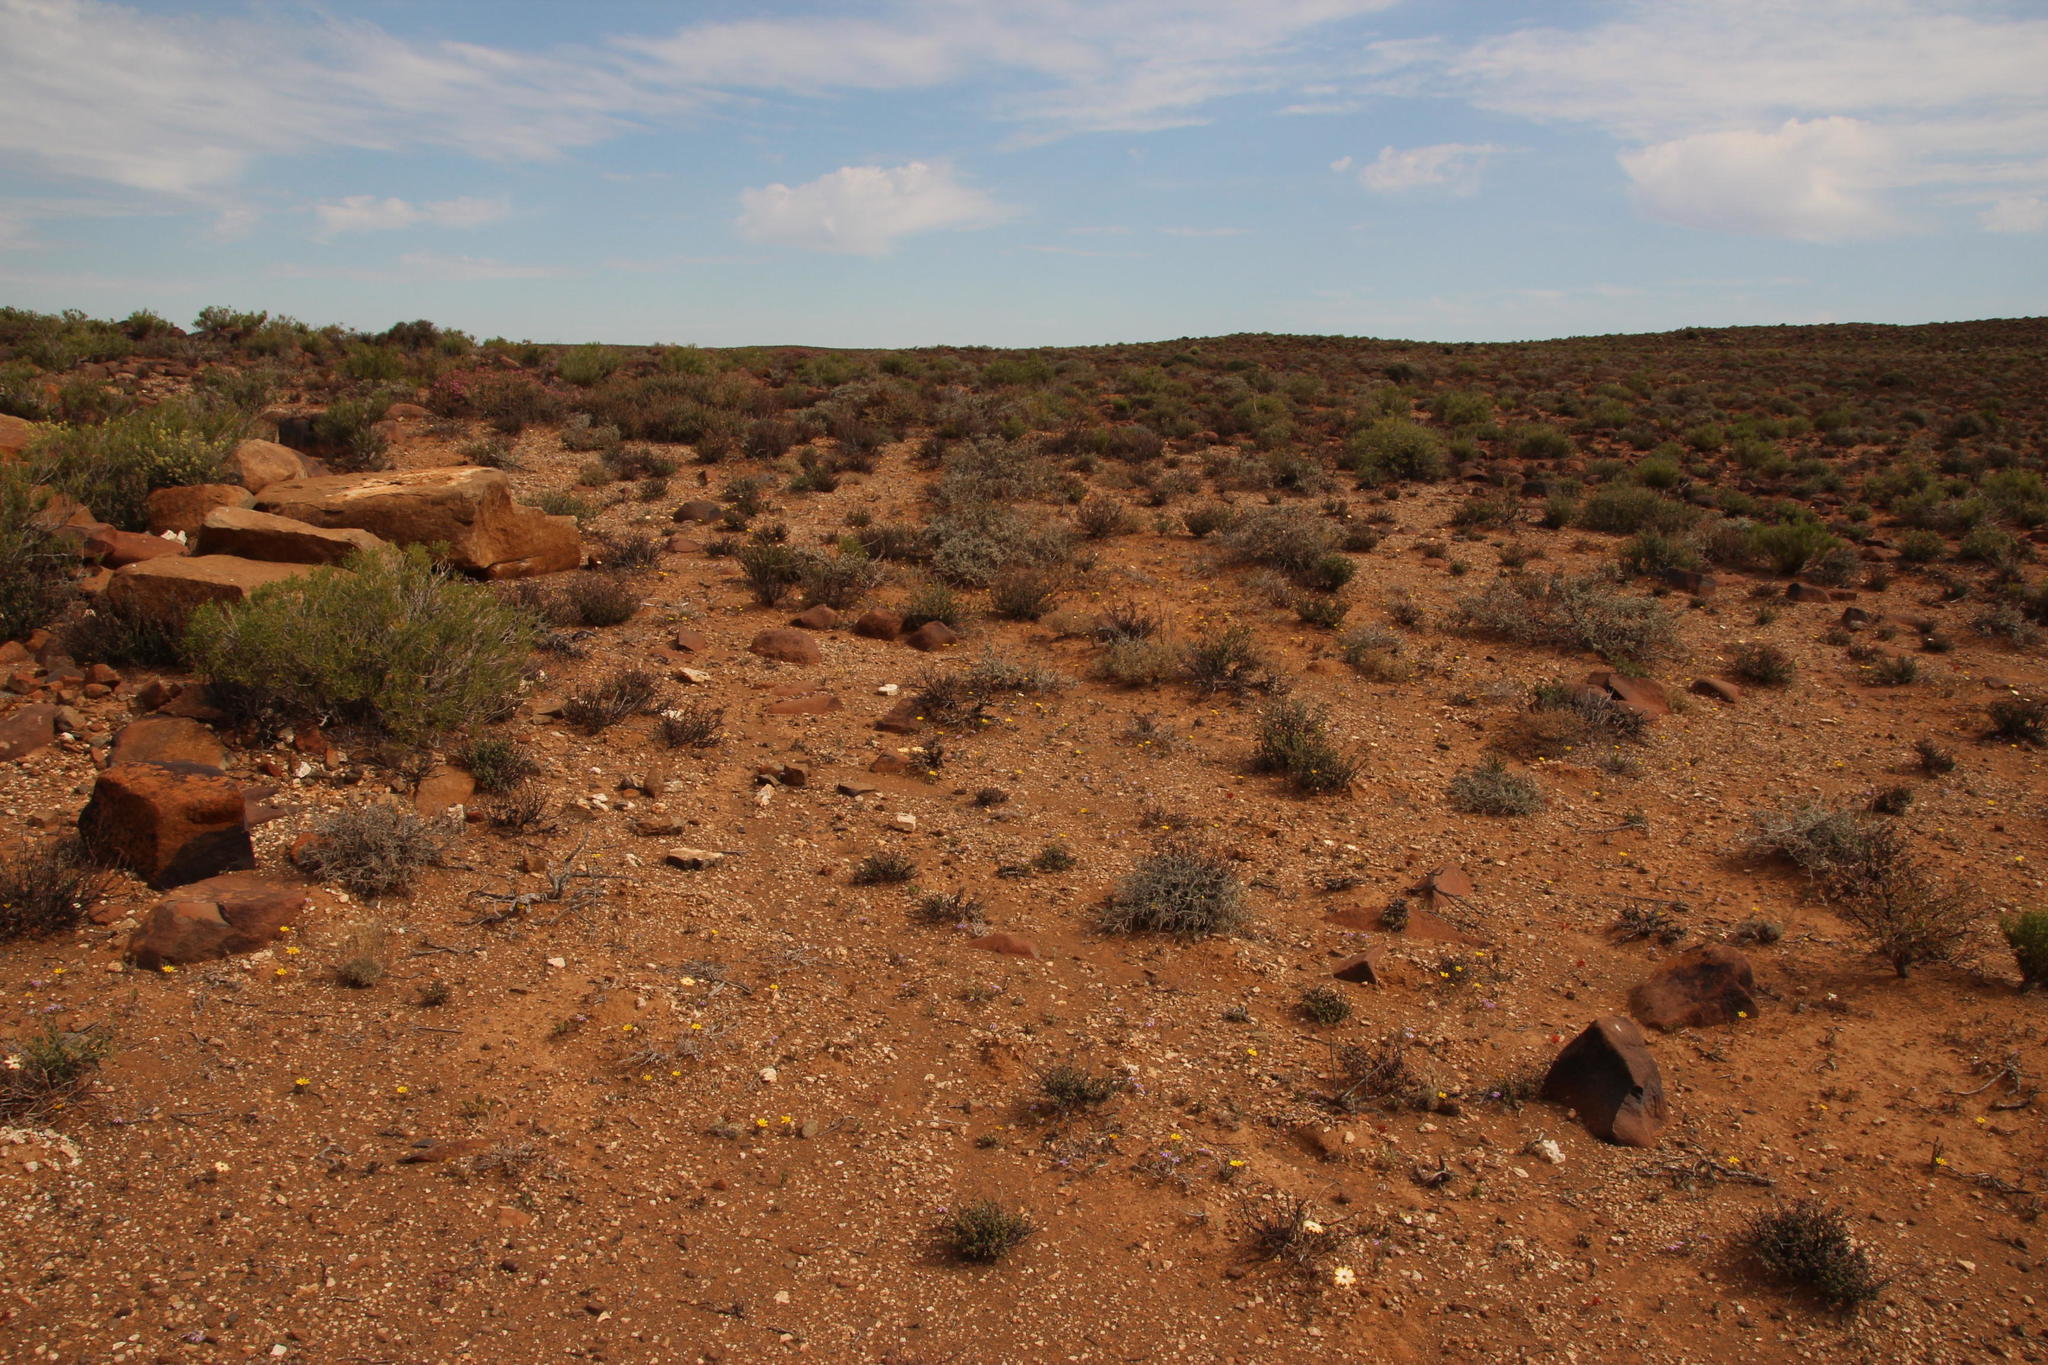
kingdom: Plantae
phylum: Tracheophyta
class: Magnoliopsida
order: Asterales
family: Asteraceae
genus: Dimorphotheca
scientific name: Dimorphotheca pinnata
